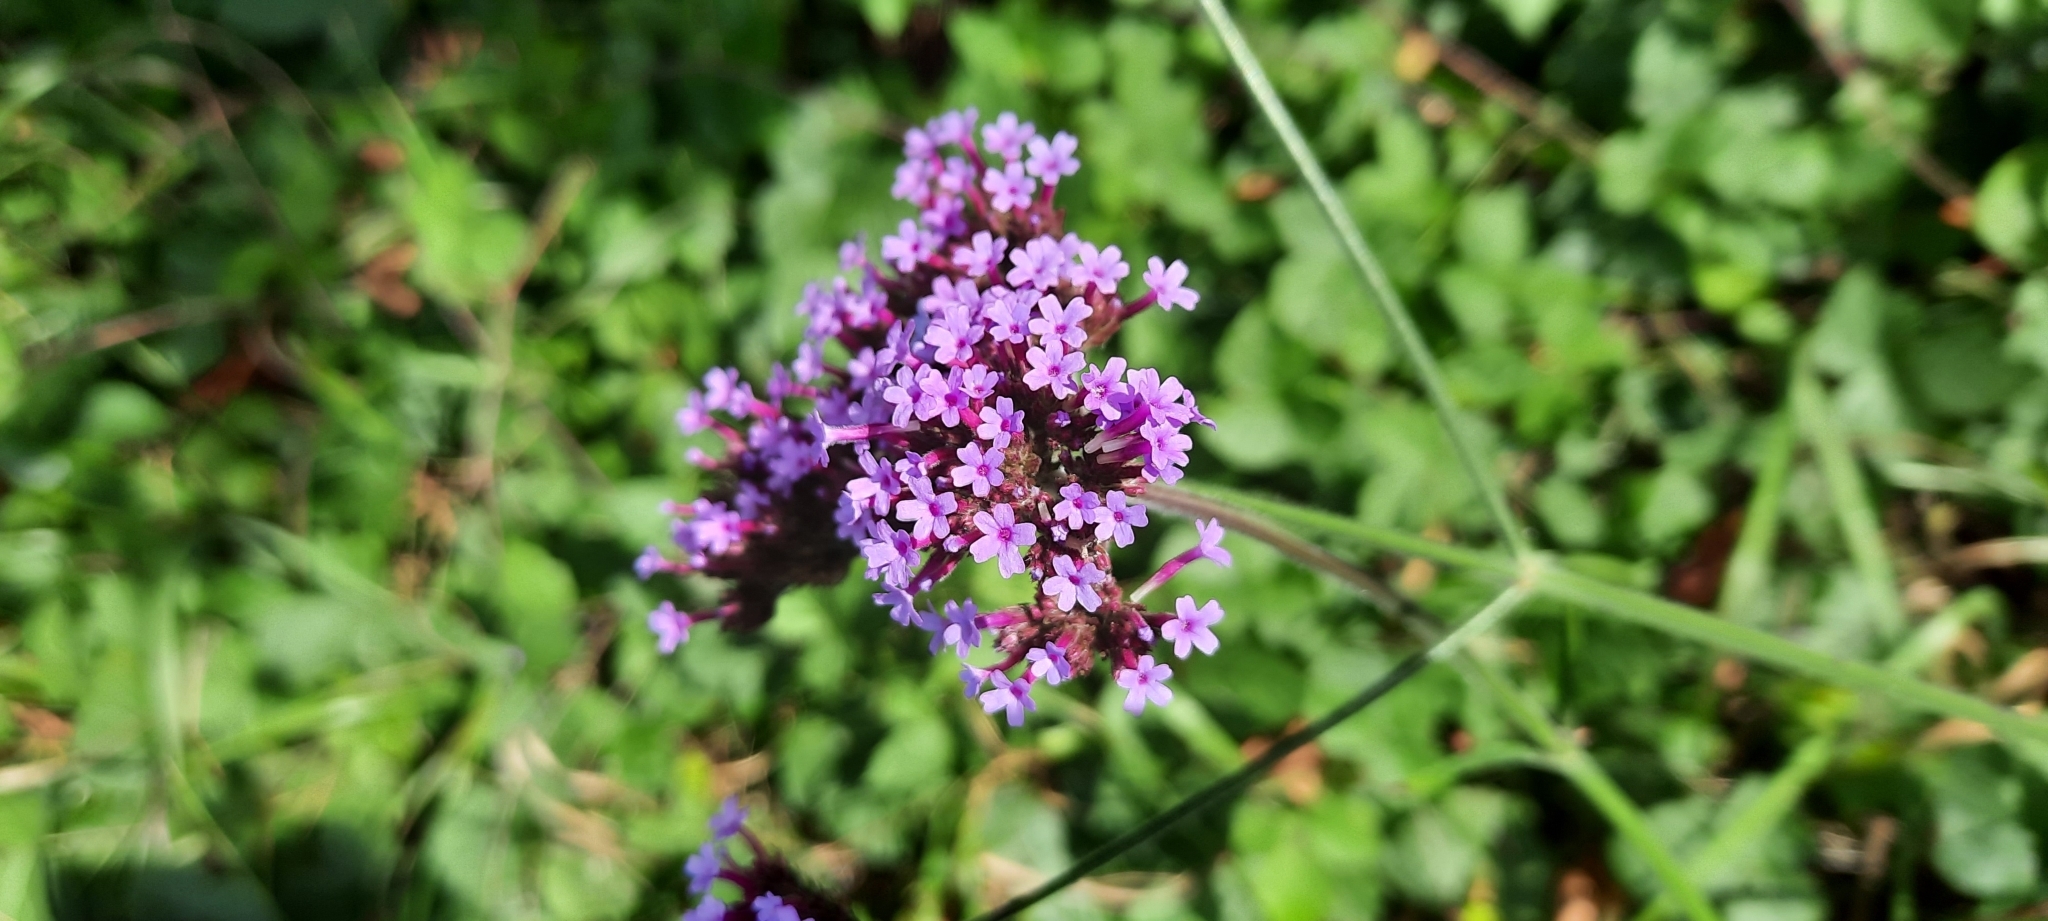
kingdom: Plantae
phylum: Tracheophyta
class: Magnoliopsida
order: Lamiales
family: Verbenaceae
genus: Verbena
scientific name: Verbena bonariensis
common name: Purpletop vervain
